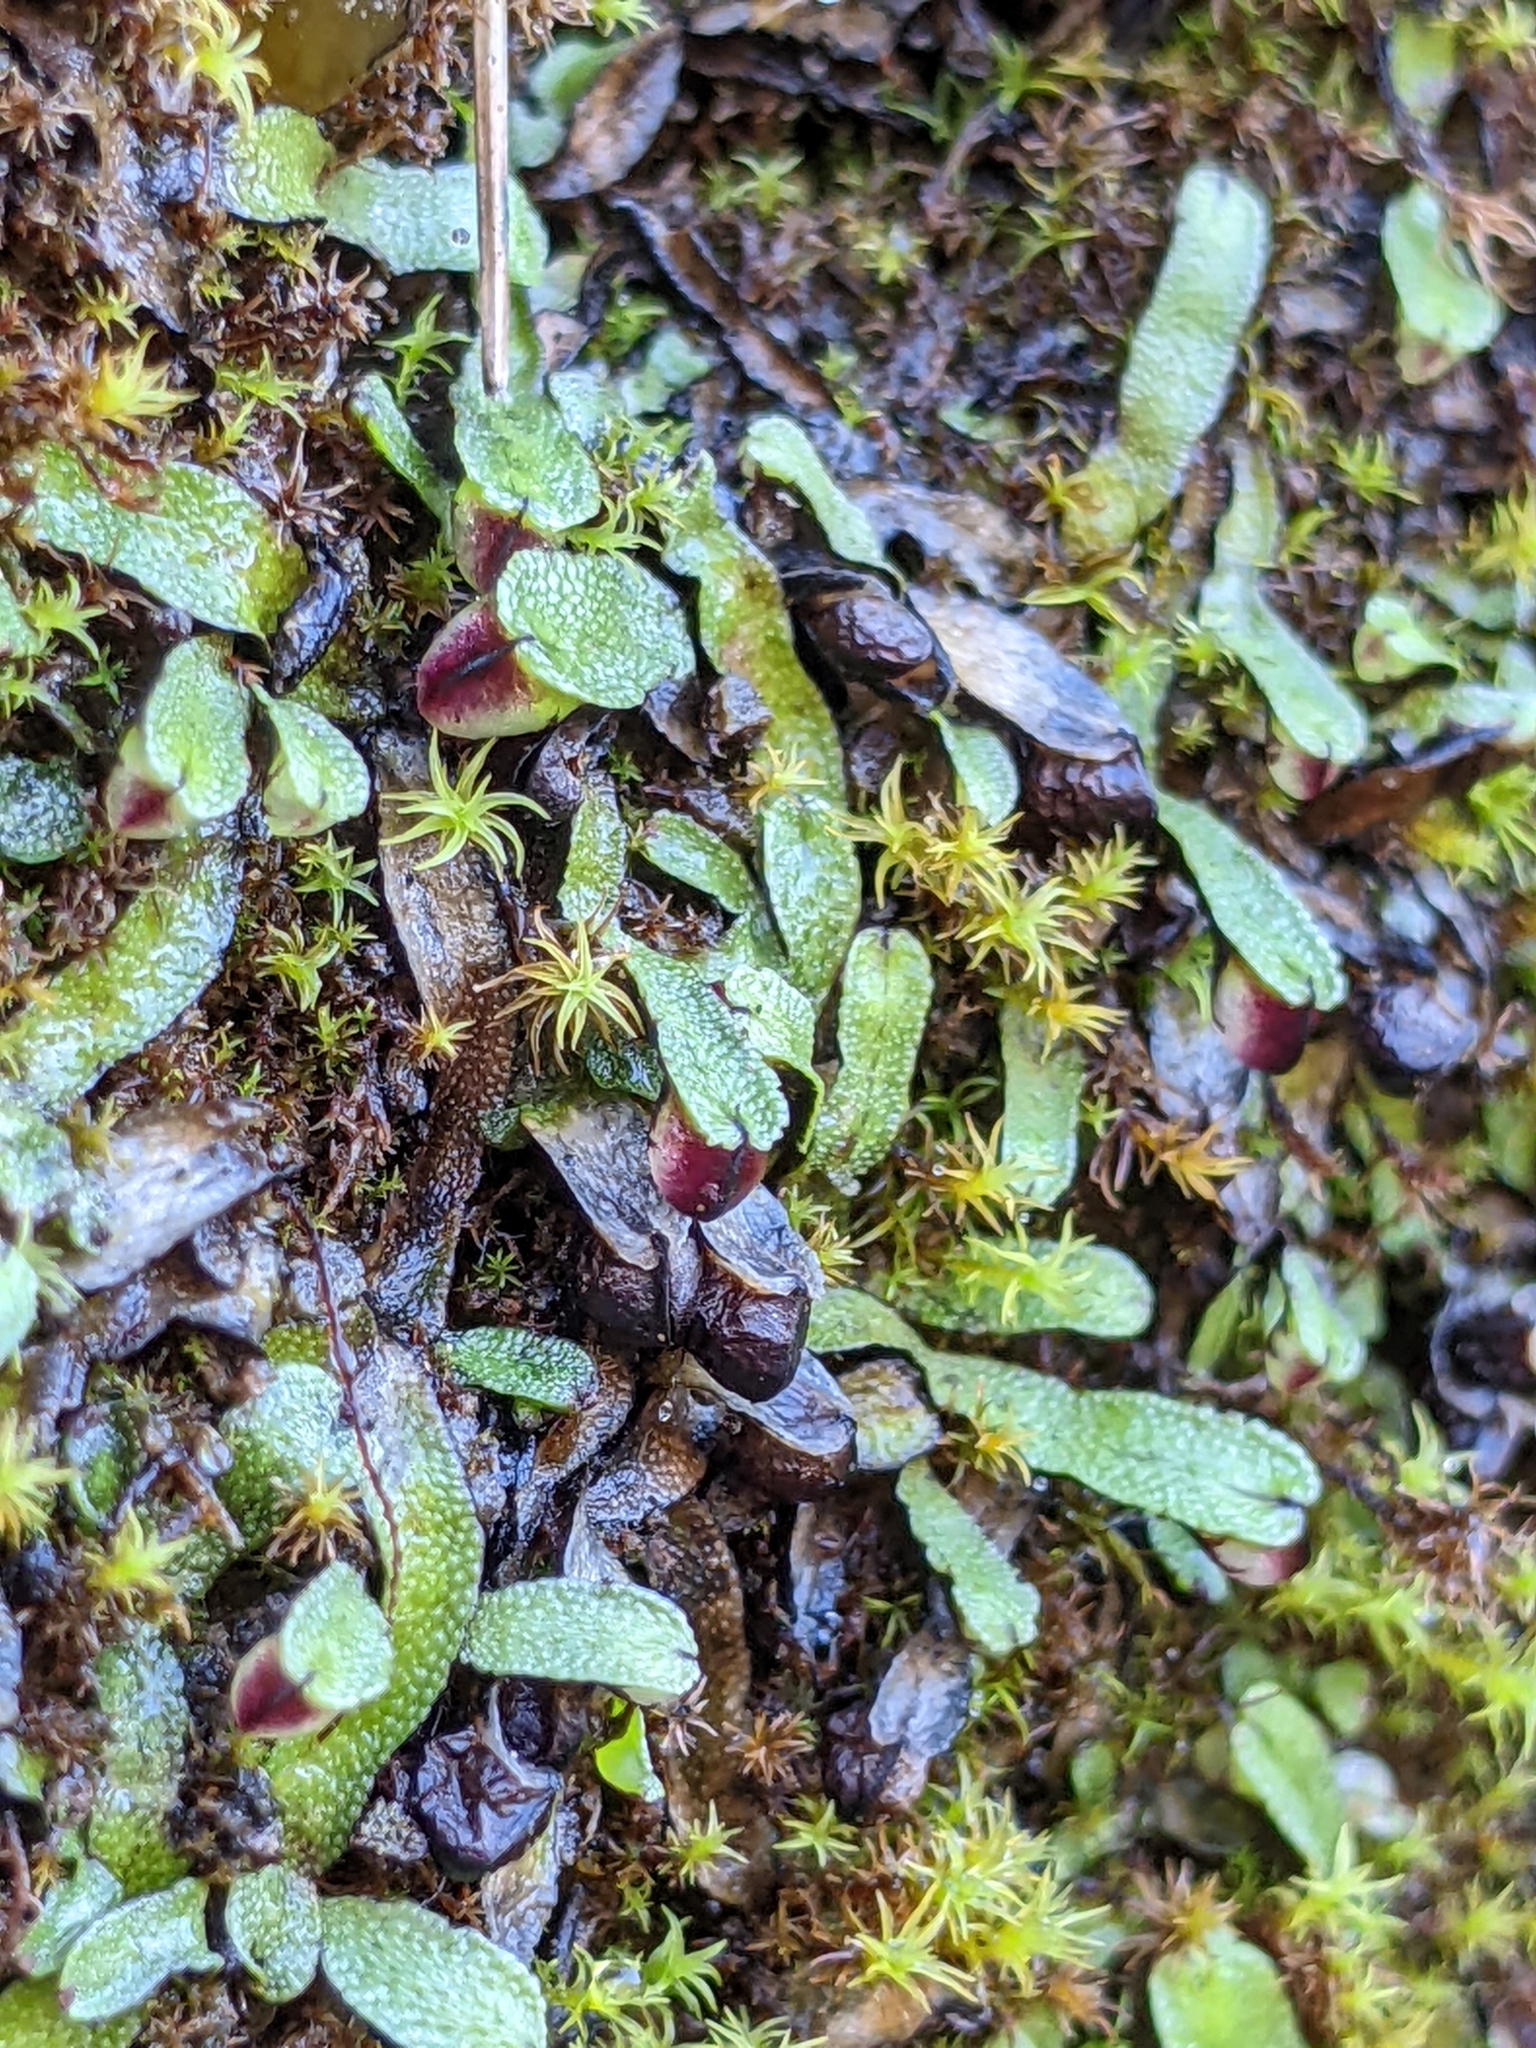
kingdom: Plantae
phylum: Marchantiophyta
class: Marchantiopsida
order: Marchantiales
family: Targioniaceae
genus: Targionia
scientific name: Targionia hypophylla
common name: Orobus-seed liverwort
